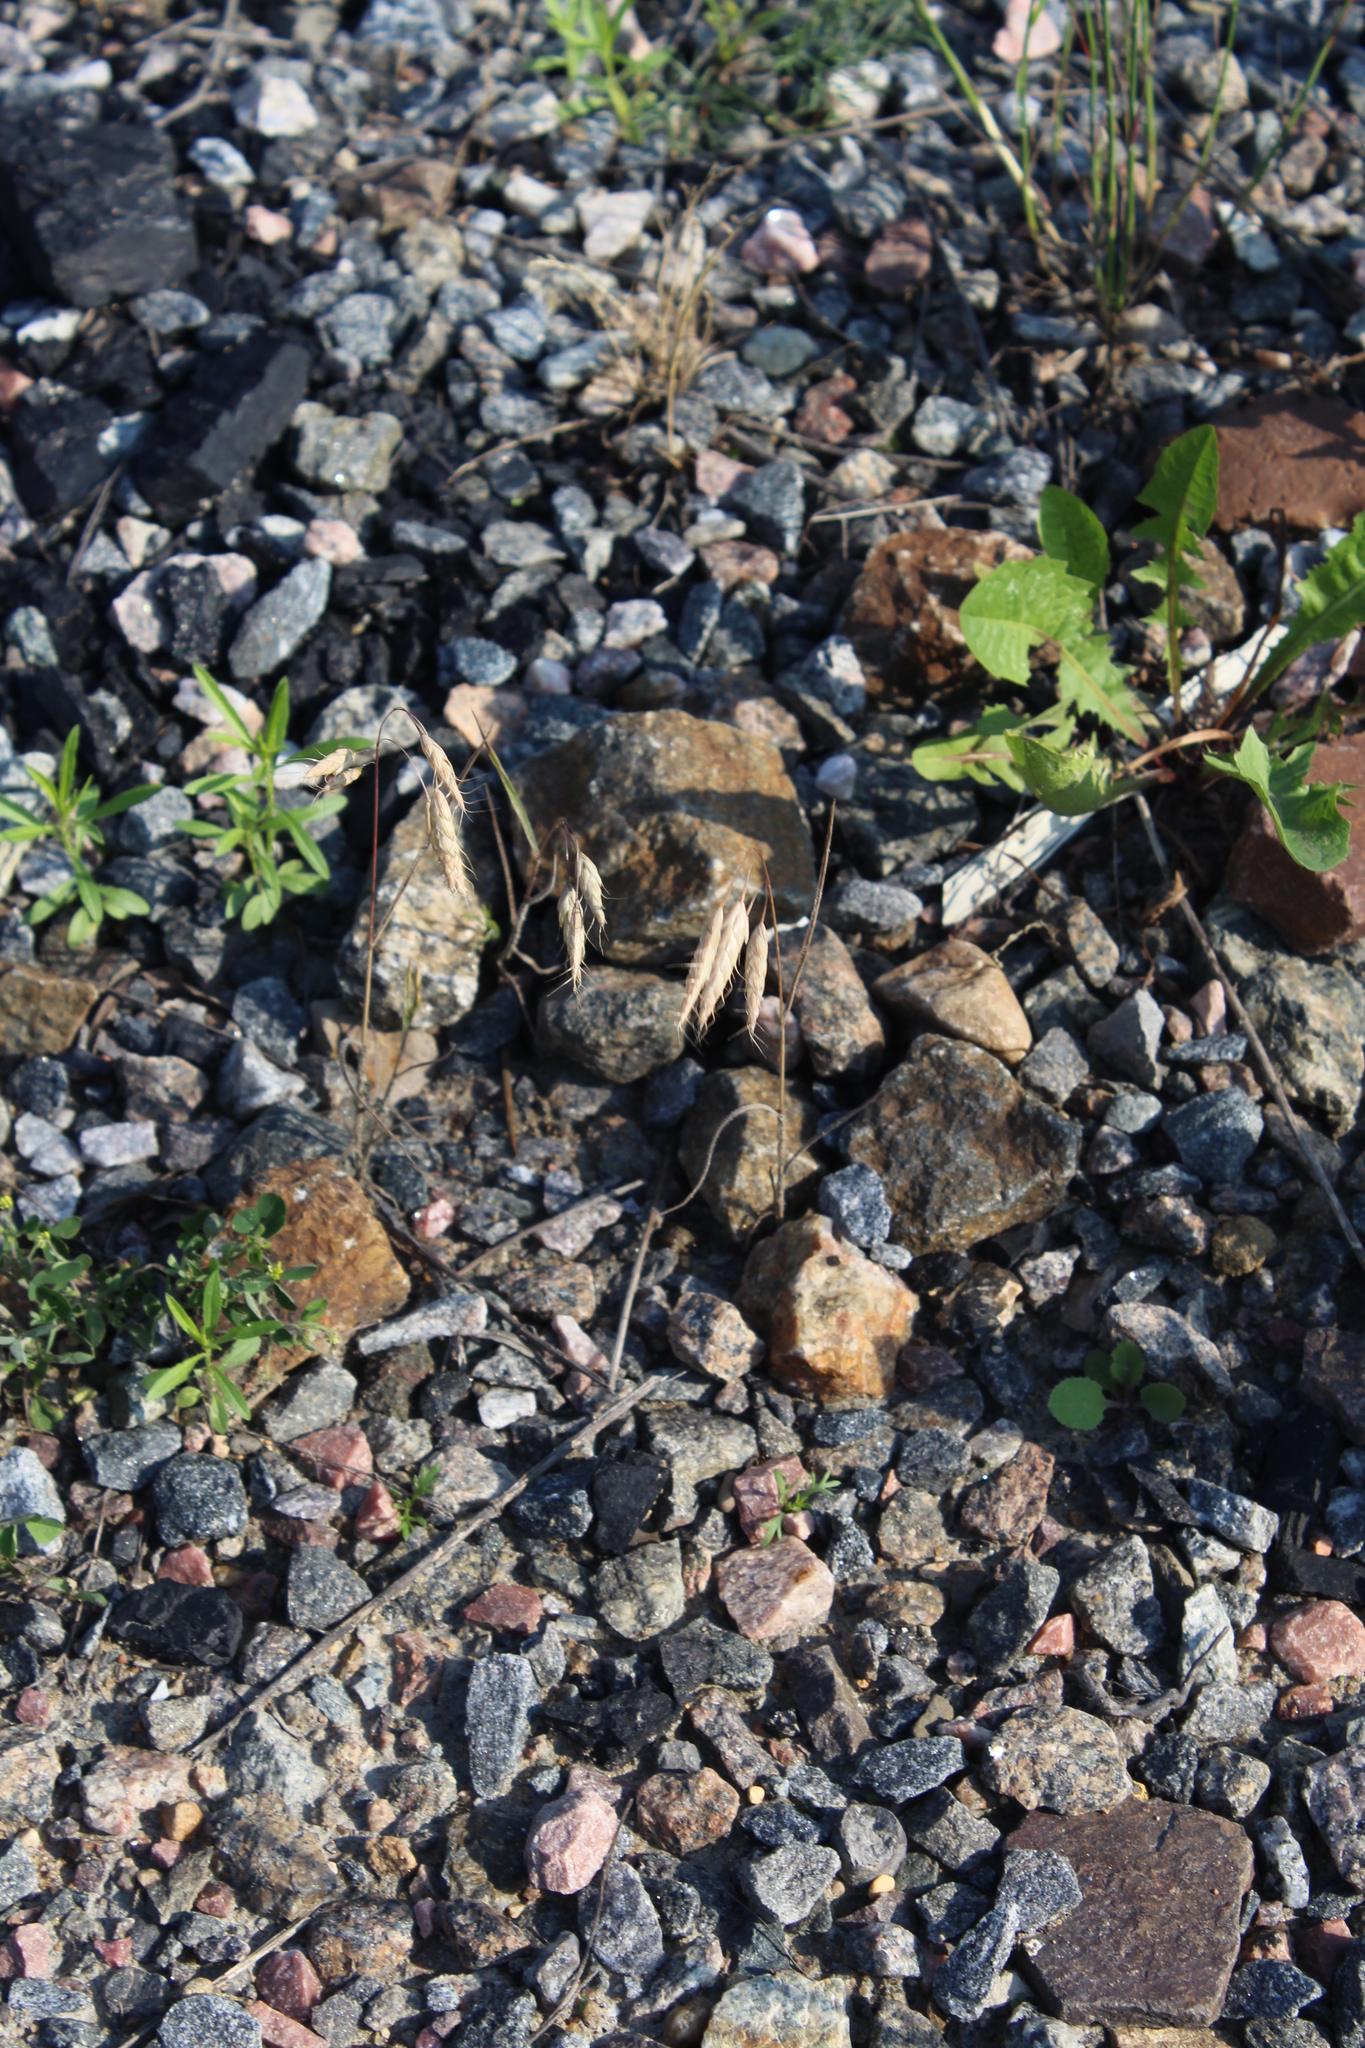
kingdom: Plantae
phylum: Tracheophyta
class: Liliopsida
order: Poales
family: Poaceae
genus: Bromus
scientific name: Bromus squarrosus
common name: Corn brome
